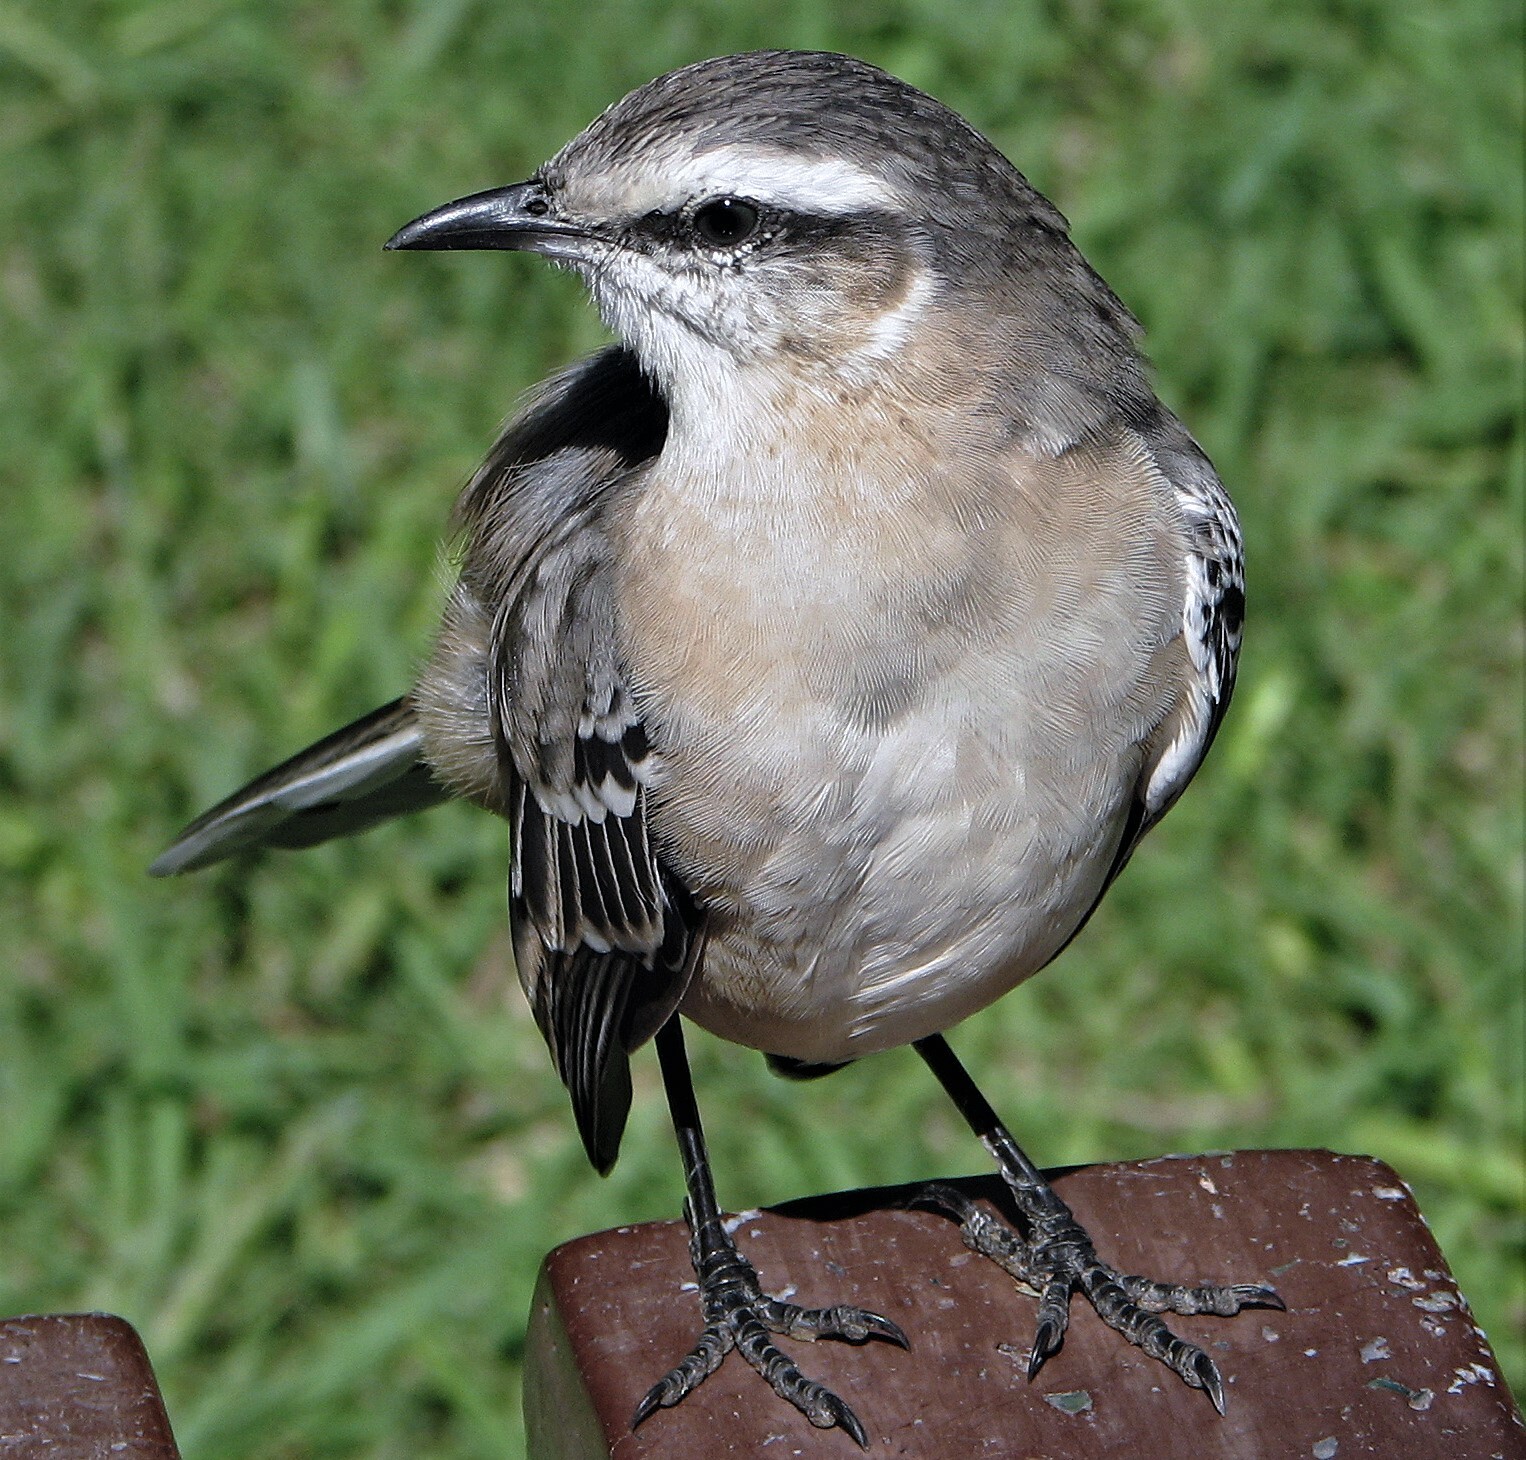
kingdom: Animalia
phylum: Chordata
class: Aves
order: Passeriformes
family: Mimidae
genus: Mimus
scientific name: Mimus saturninus
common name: Chalk-browed mockingbird
